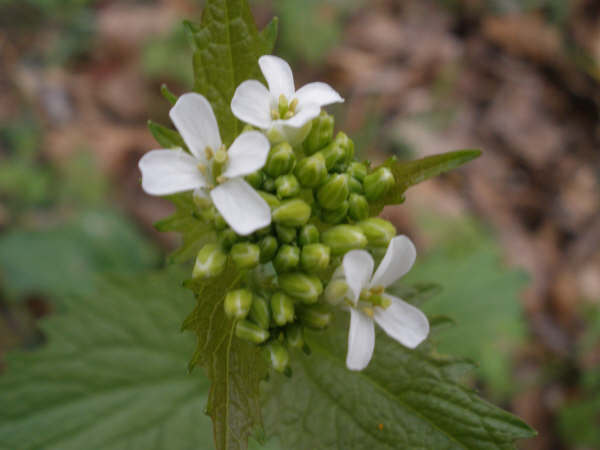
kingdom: Plantae
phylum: Tracheophyta
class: Magnoliopsida
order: Brassicales
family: Brassicaceae
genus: Alliaria
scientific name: Alliaria petiolata
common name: Garlic mustard
